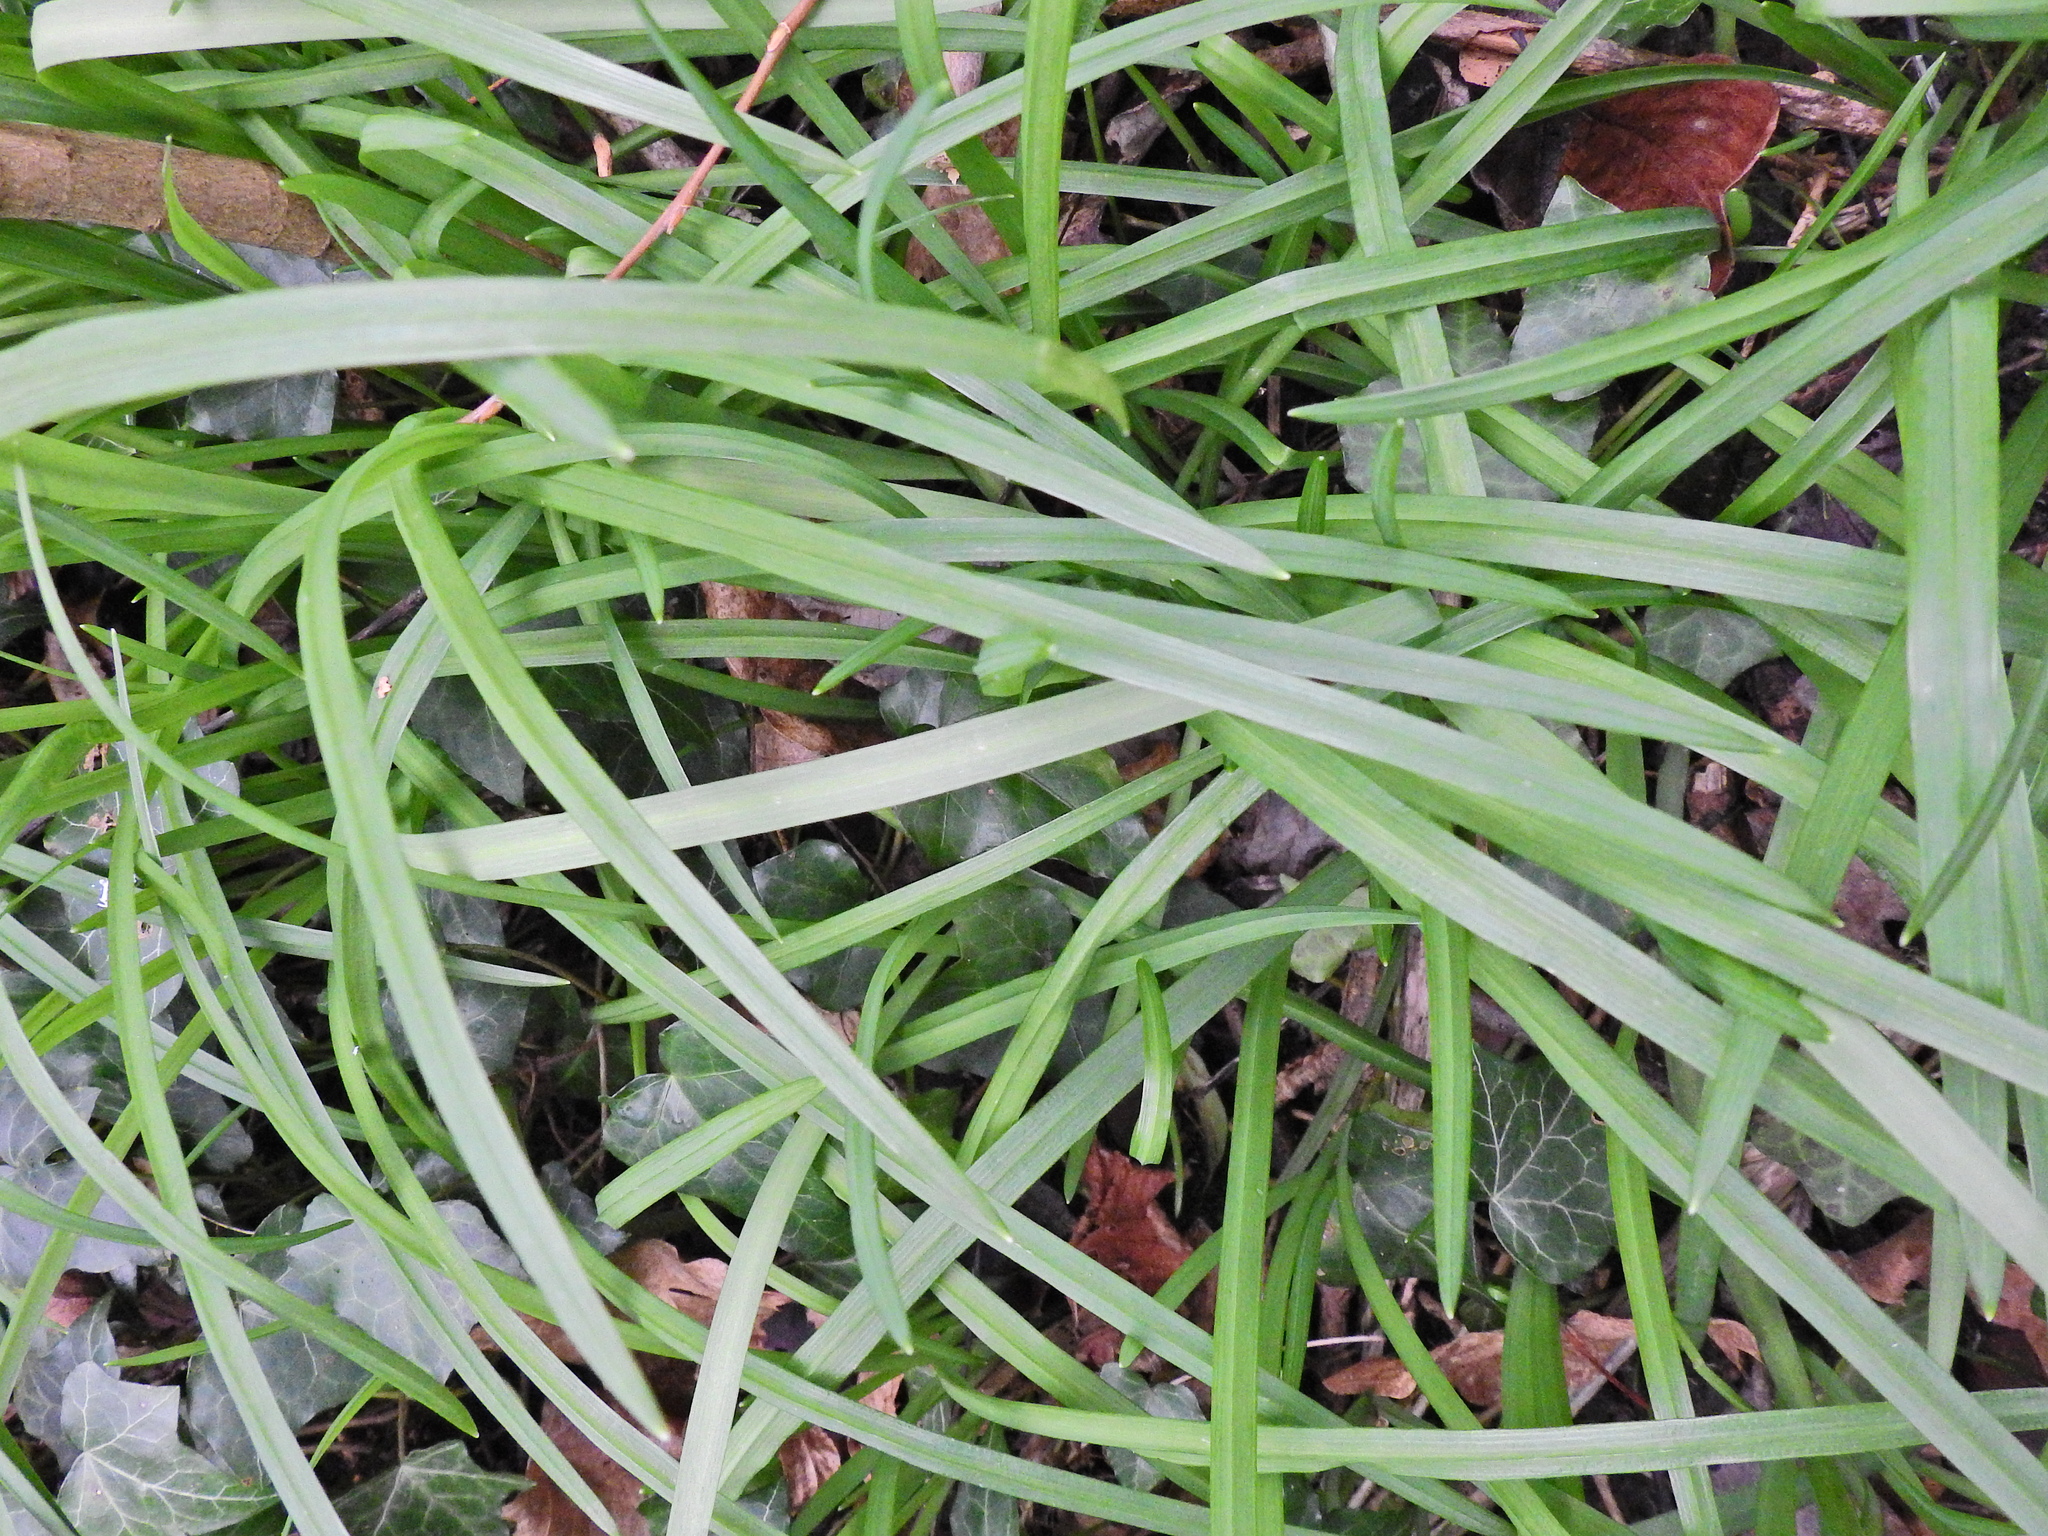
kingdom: Plantae
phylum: Tracheophyta
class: Liliopsida
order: Asparagales
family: Amaryllidaceae
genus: Allium
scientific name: Allium triquetrum
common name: Three-cornered garlic
